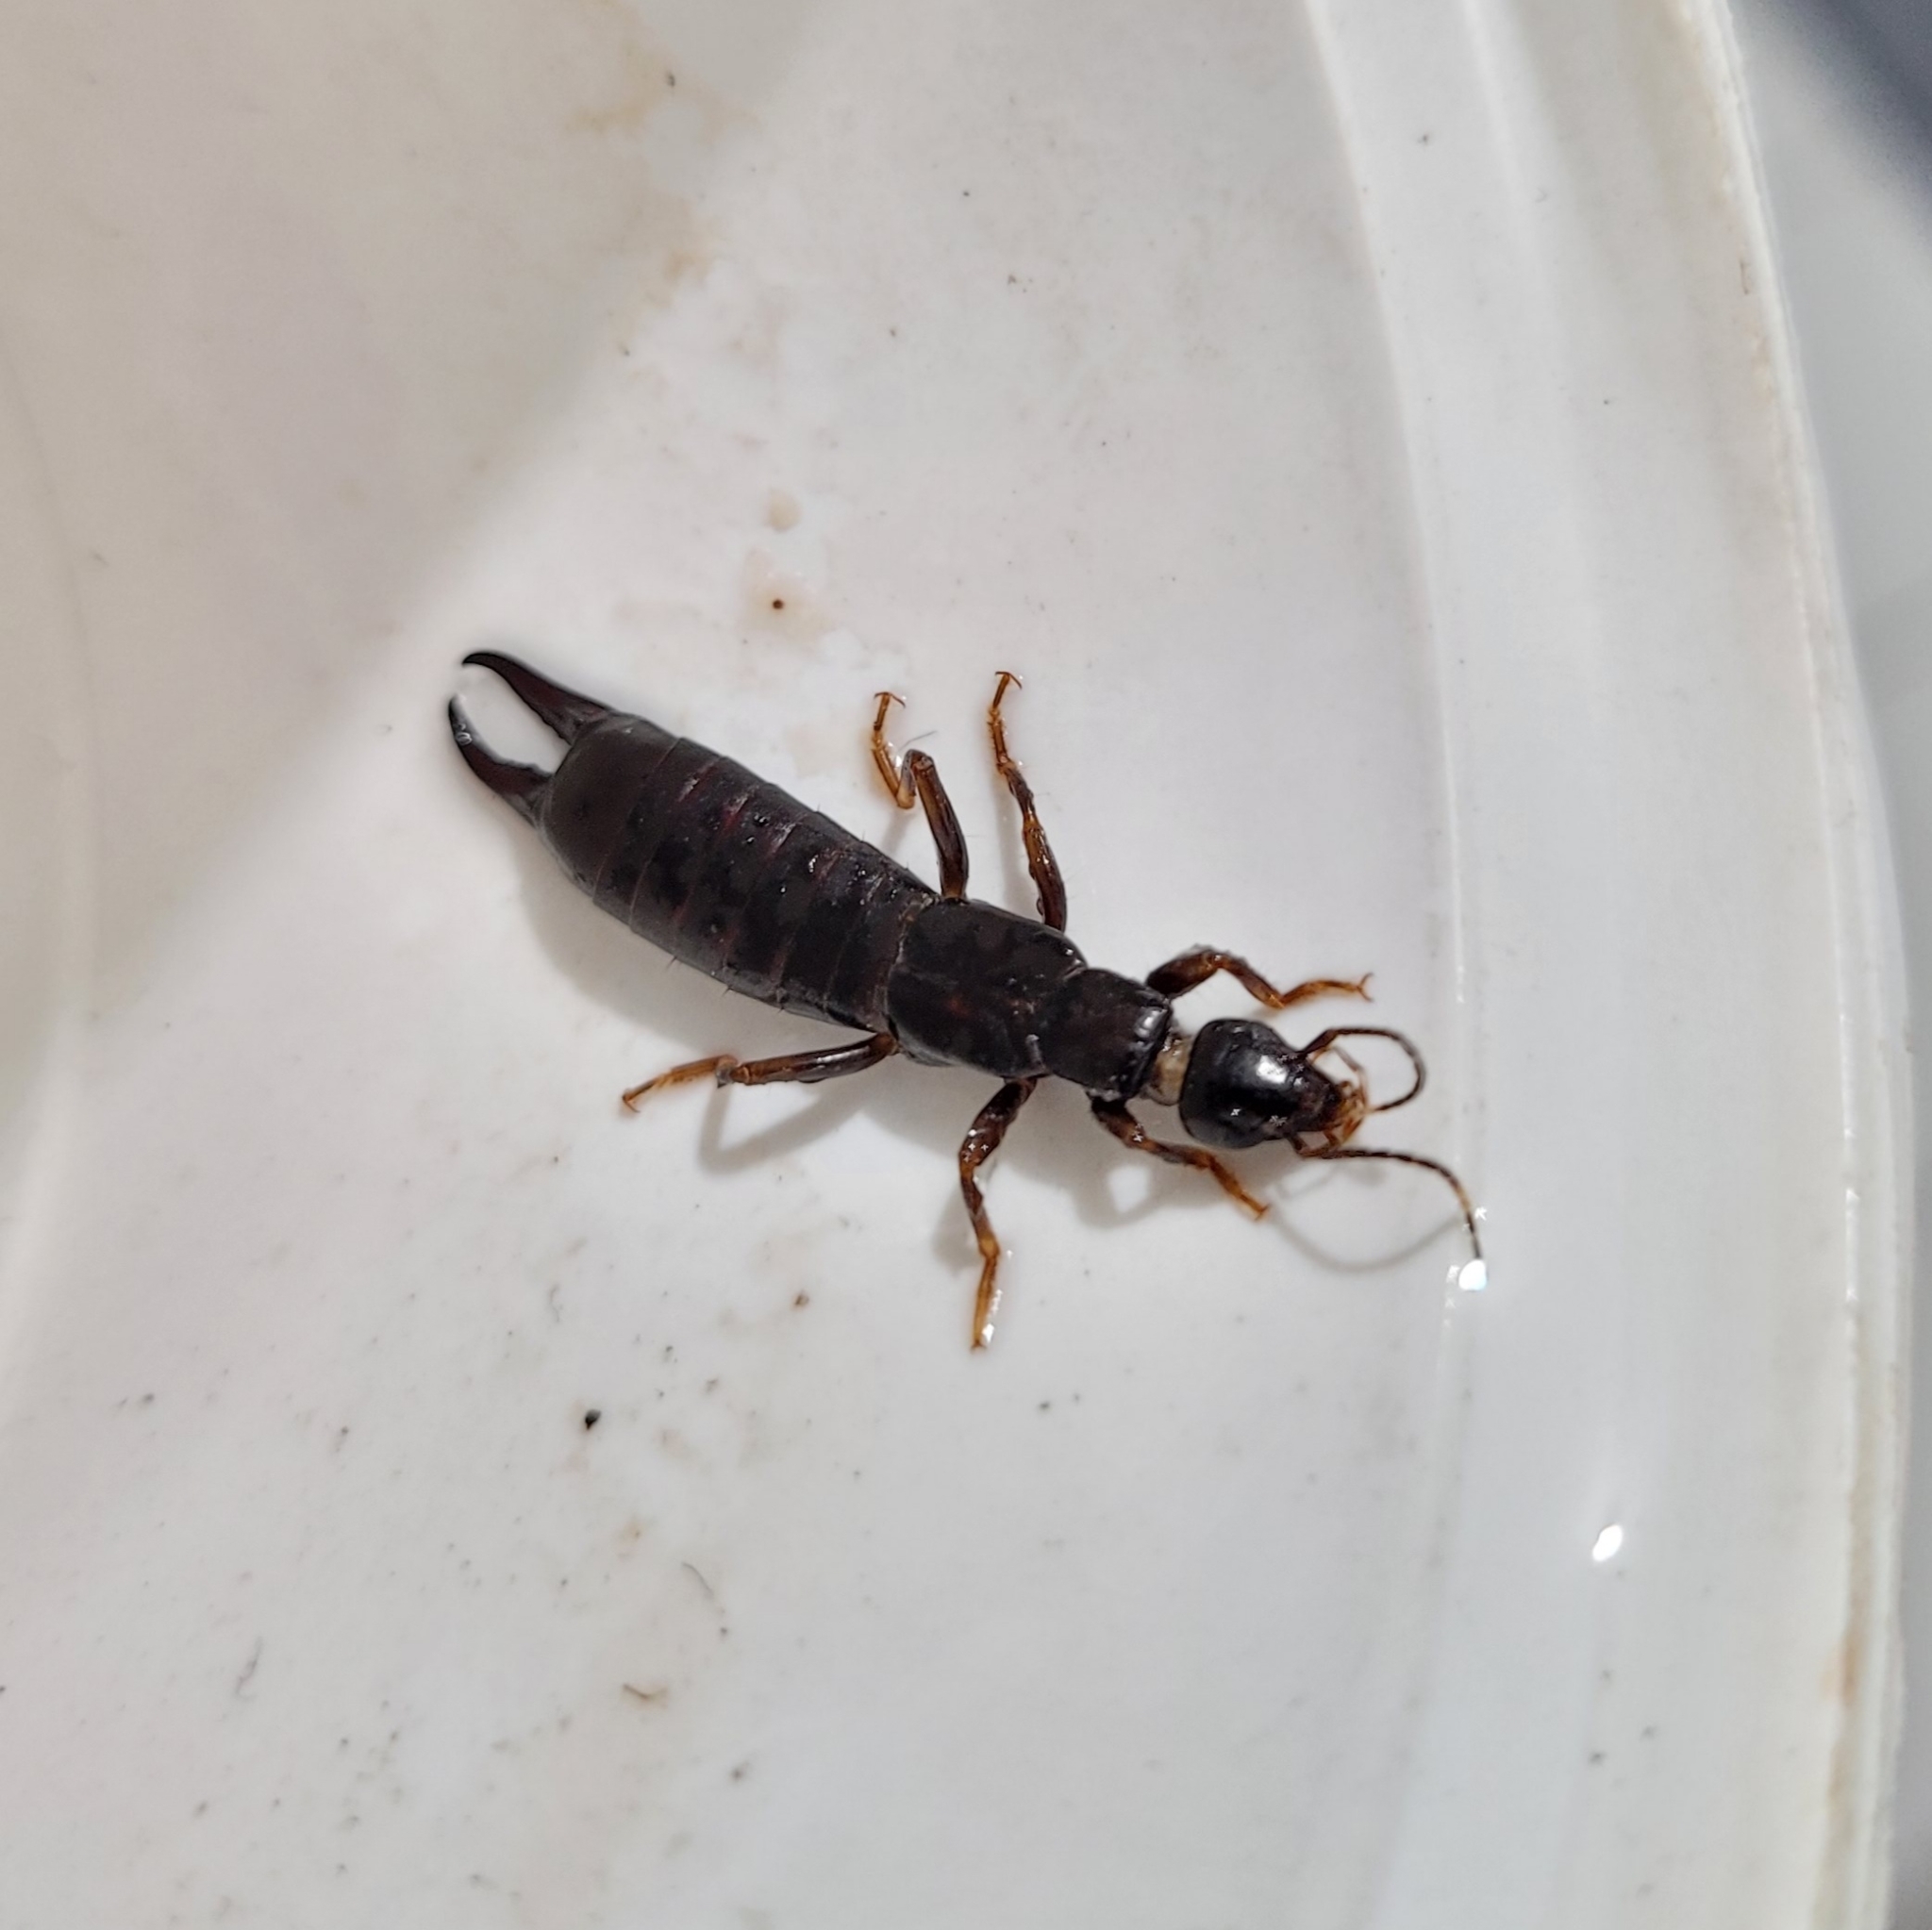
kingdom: Animalia
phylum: Arthropoda
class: Insecta
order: Dermaptera
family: Anisolabididae
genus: Carcinophora
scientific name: Carcinophora gagatina
